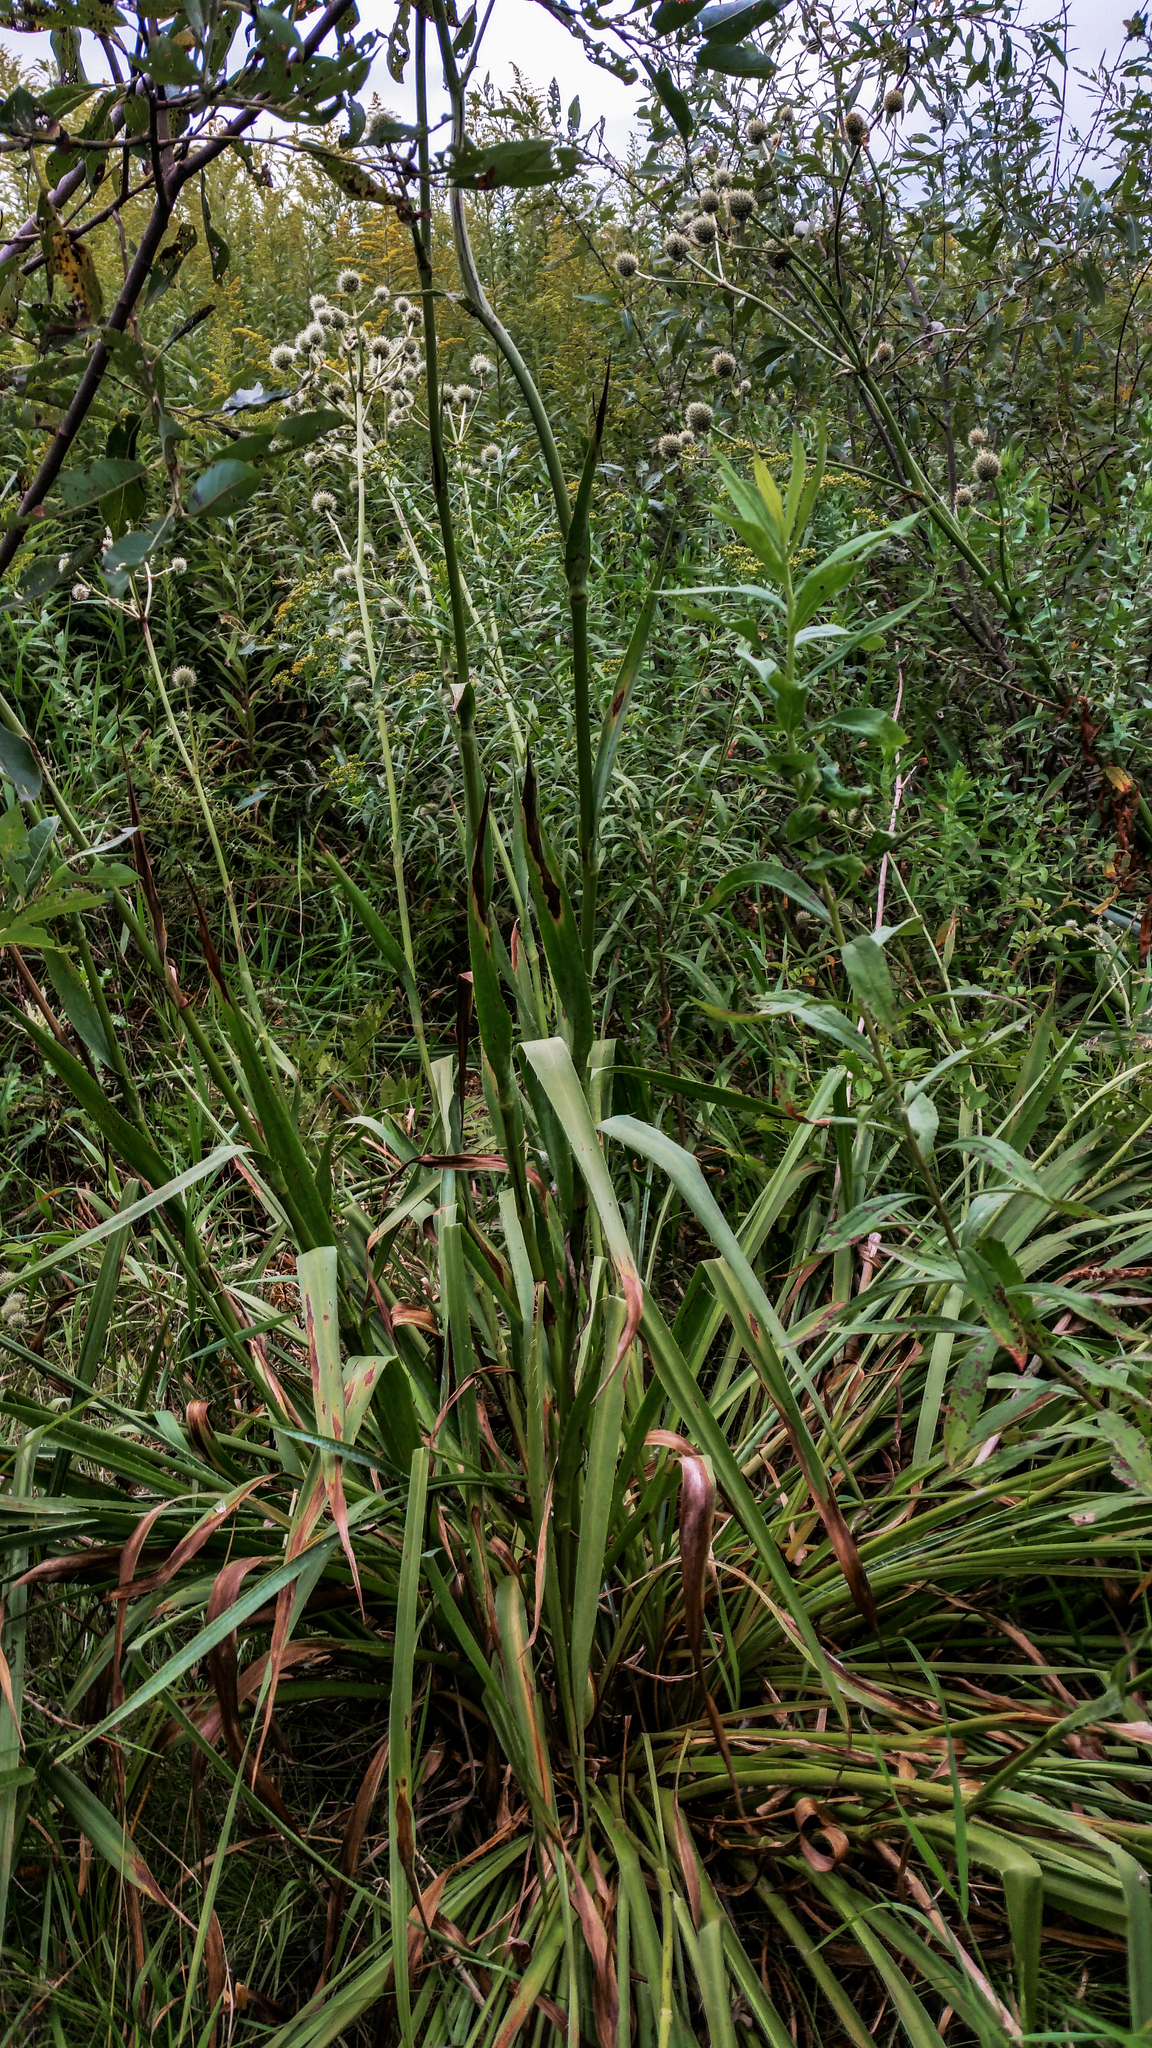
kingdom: Plantae
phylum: Tracheophyta
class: Magnoliopsida
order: Apiales
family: Apiaceae
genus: Eryngium
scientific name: Eryngium yuccifolium
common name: Button eryngo
